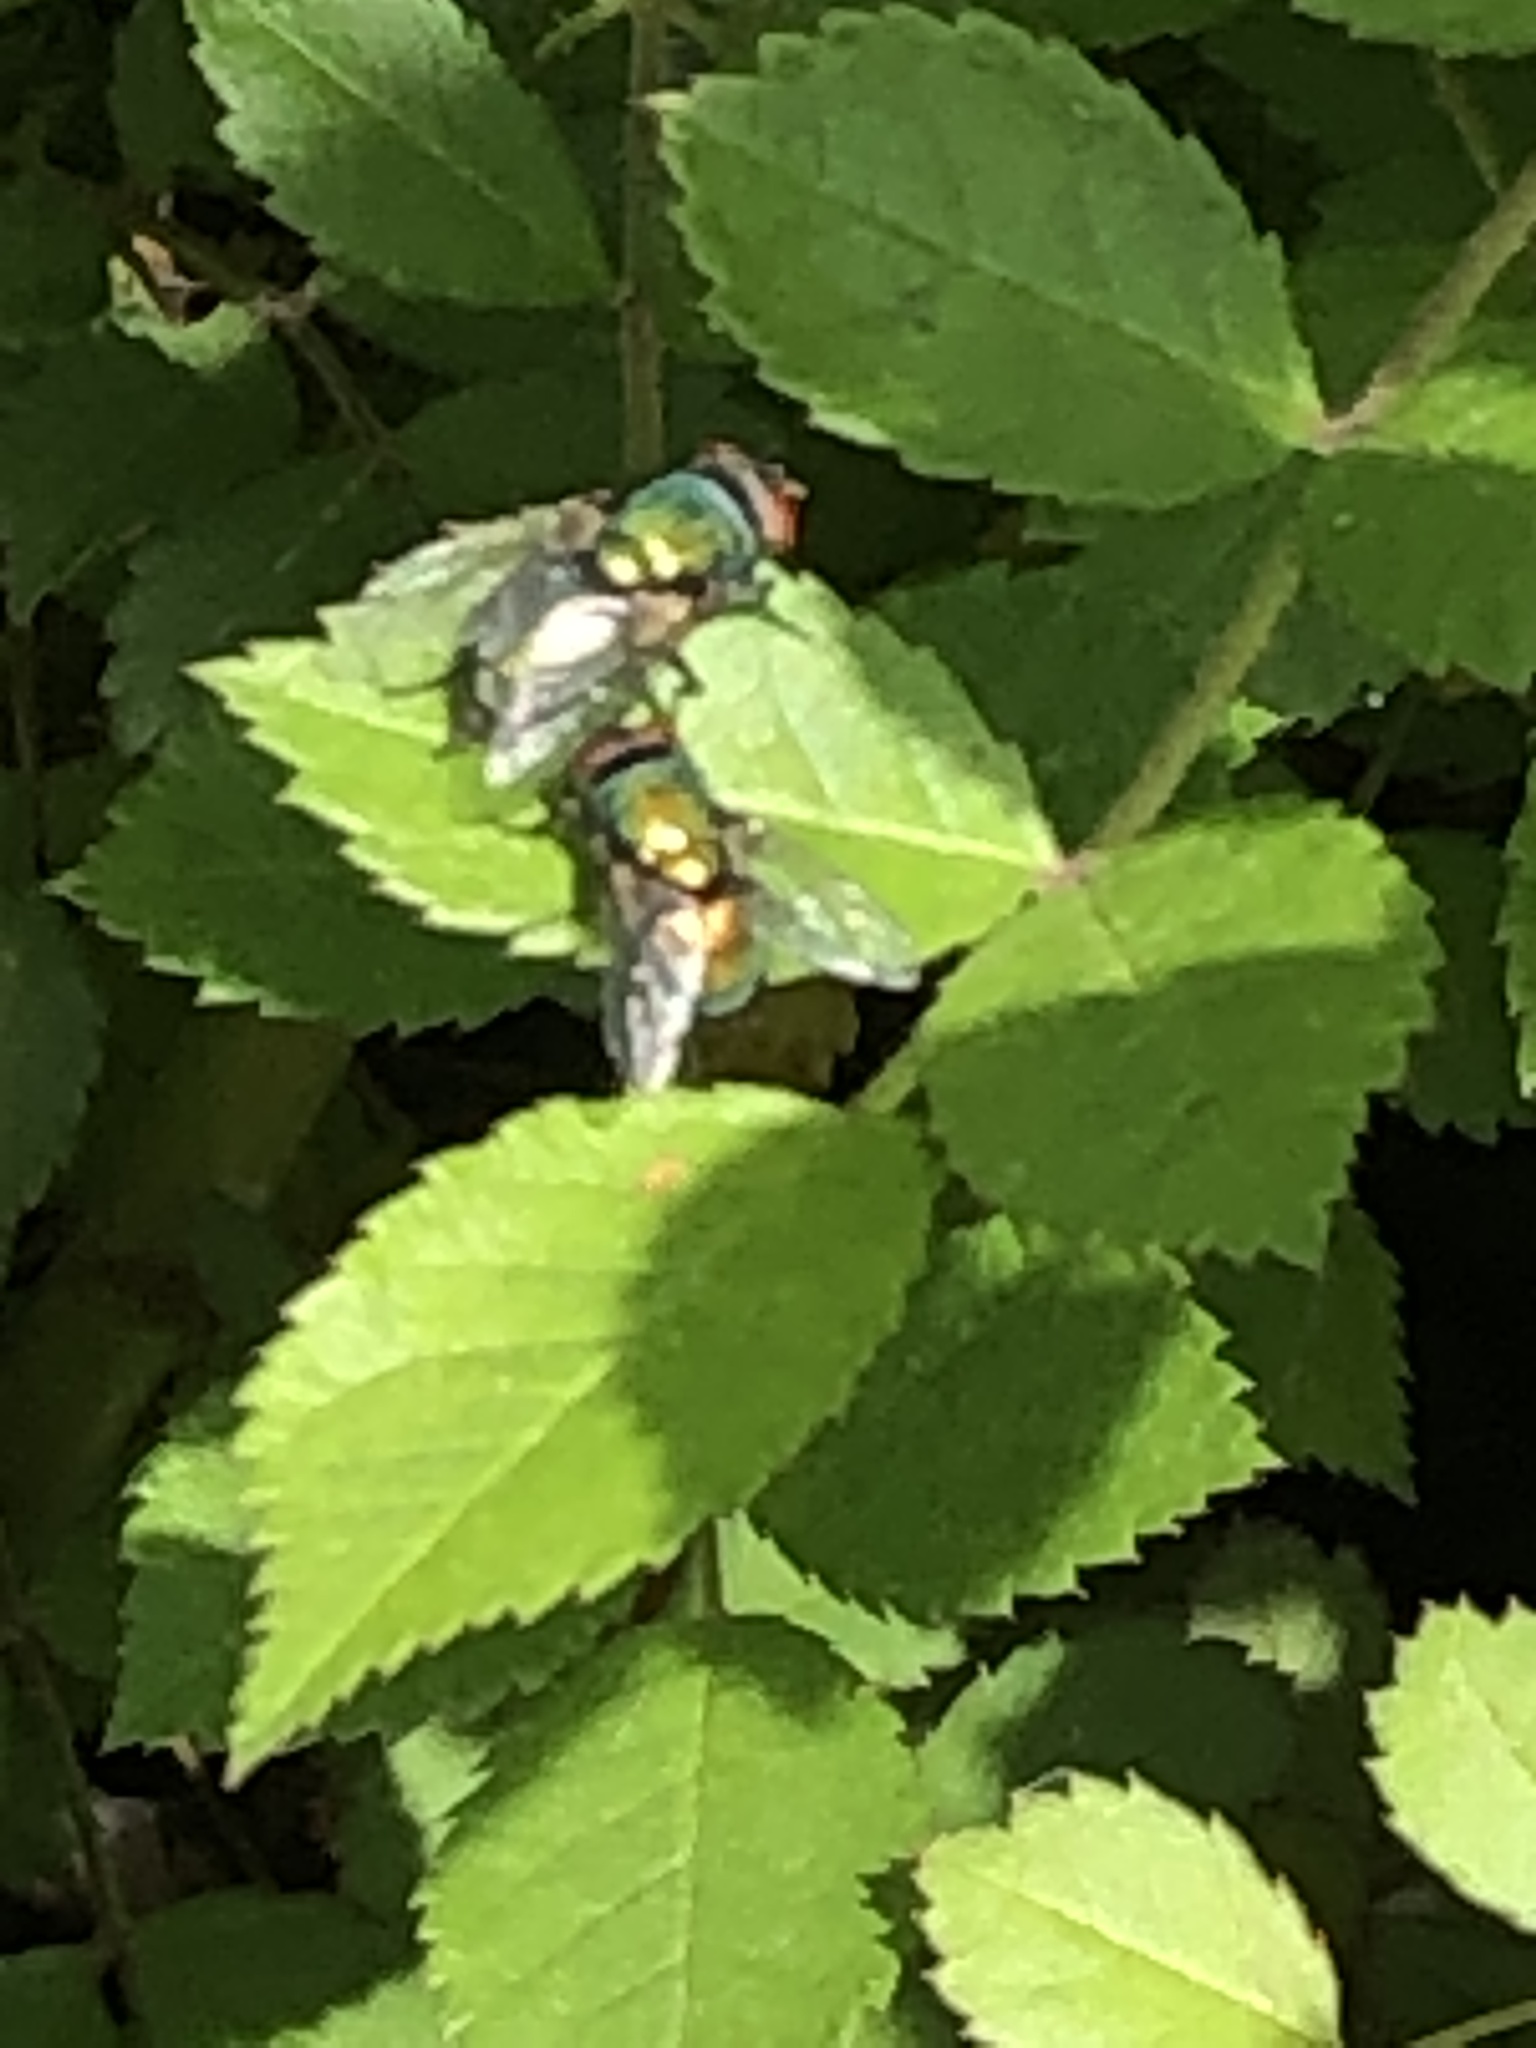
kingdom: Animalia
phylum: Arthropoda
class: Insecta
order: Diptera
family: Calliphoridae
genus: Lucilia
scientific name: Lucilia sericata
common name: Blow fly
